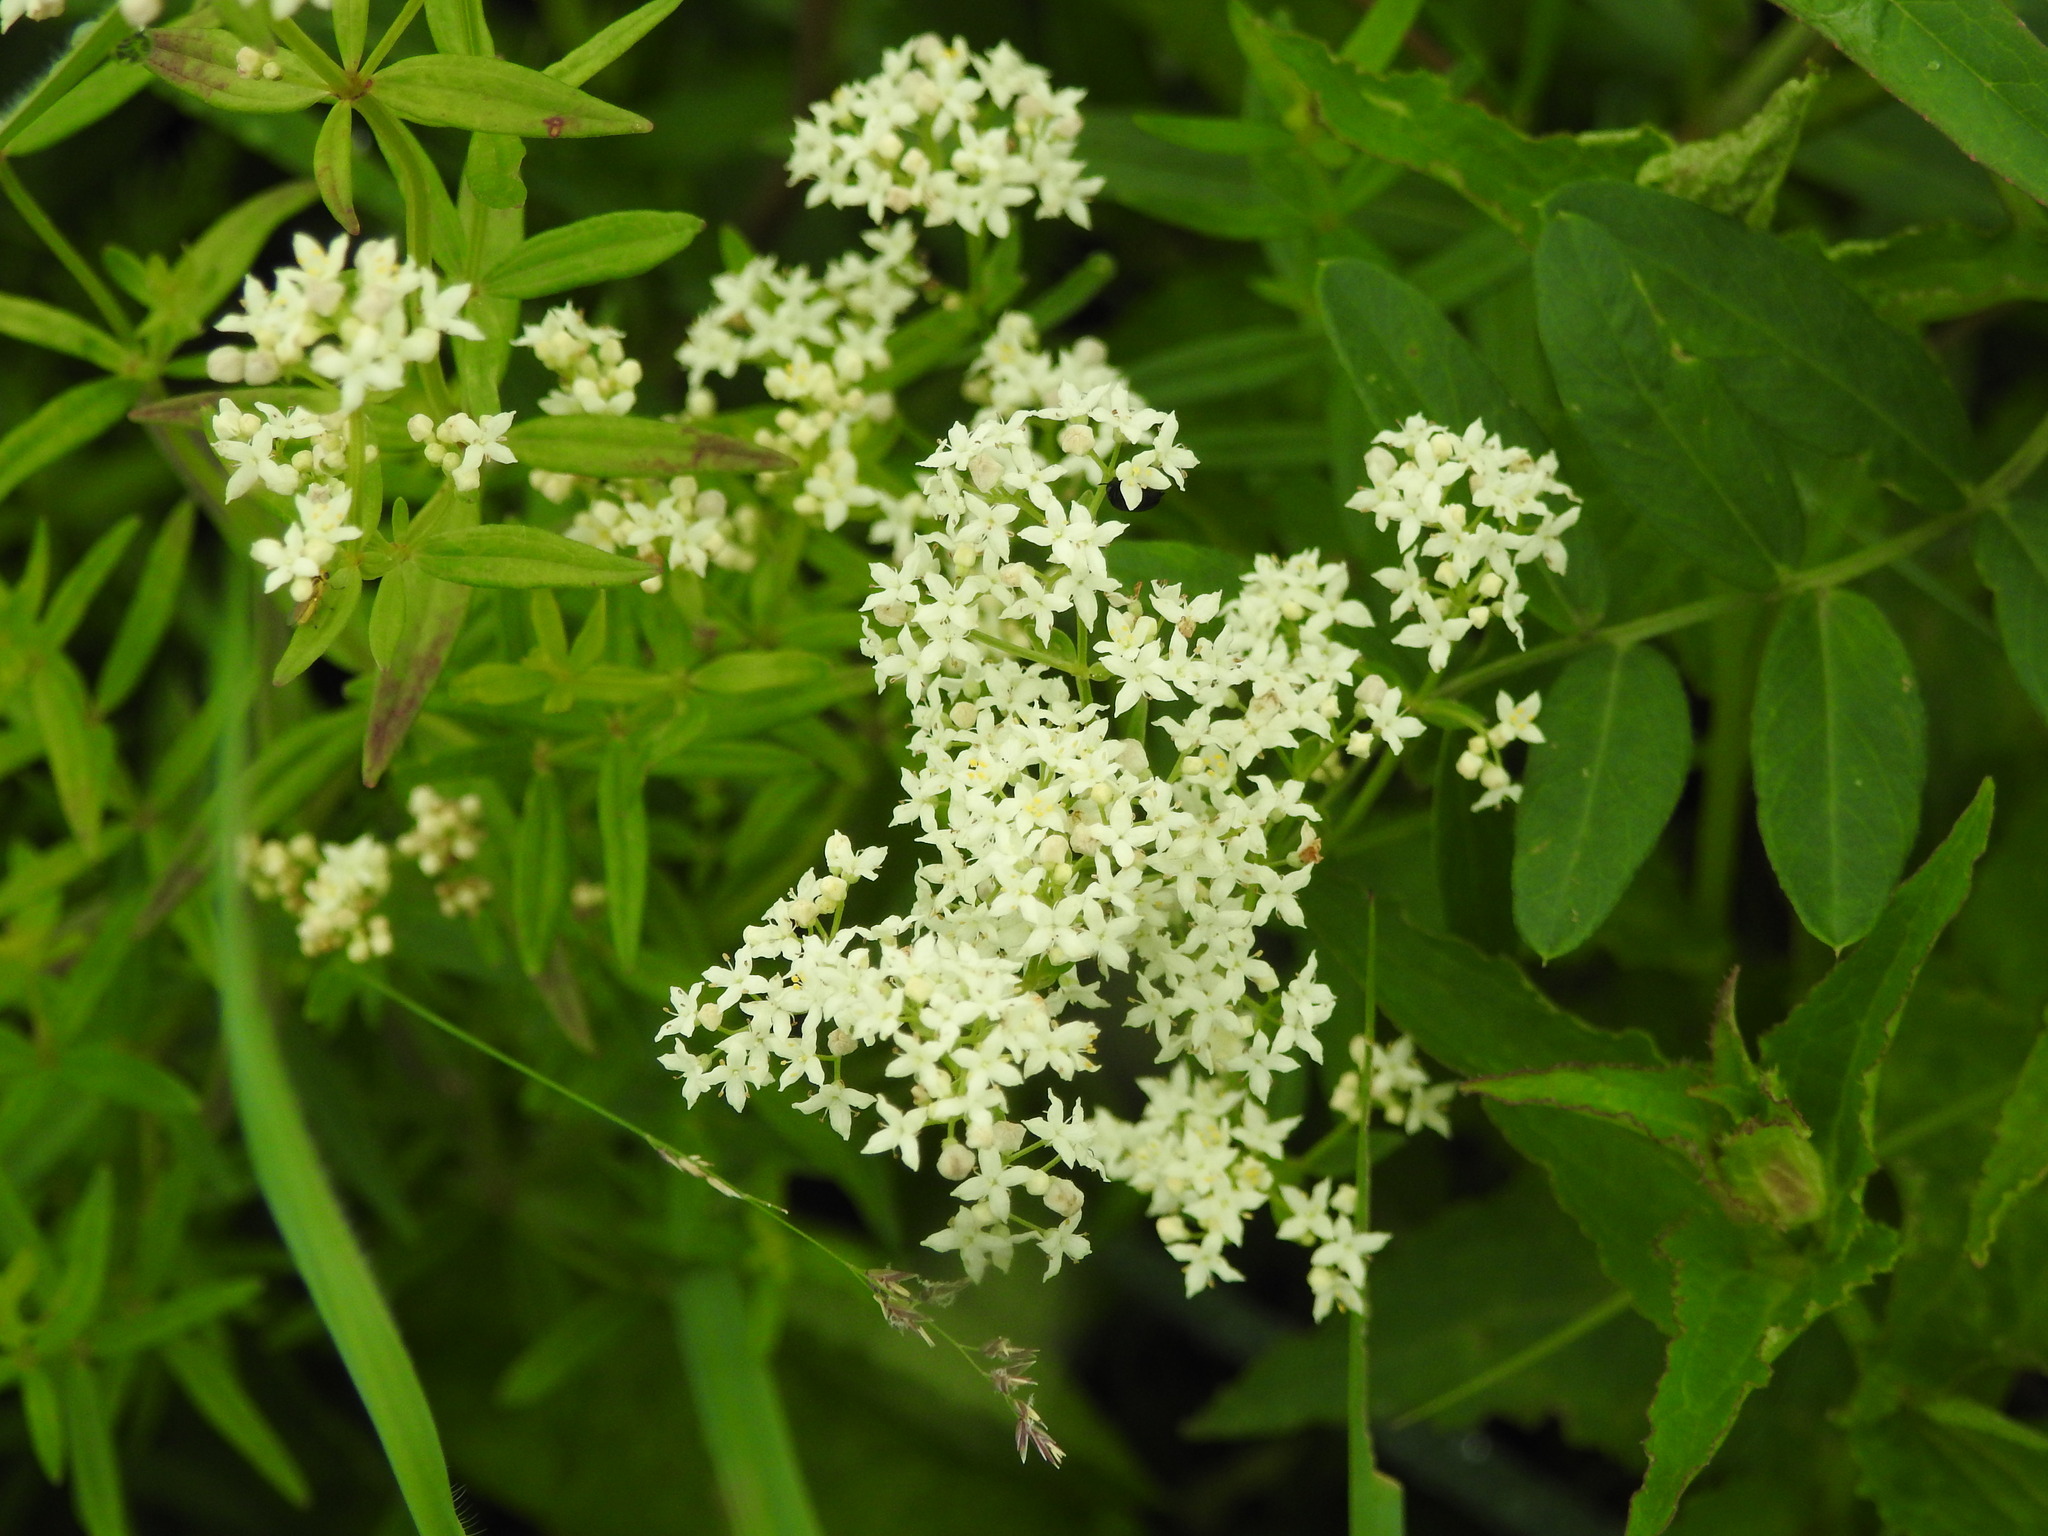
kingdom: Plantae
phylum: Tracheophyta
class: Magnoliopsida
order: Gentianales
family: Rubiaceae
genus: Galium
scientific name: Galium boreale
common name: Northern bedstraw
